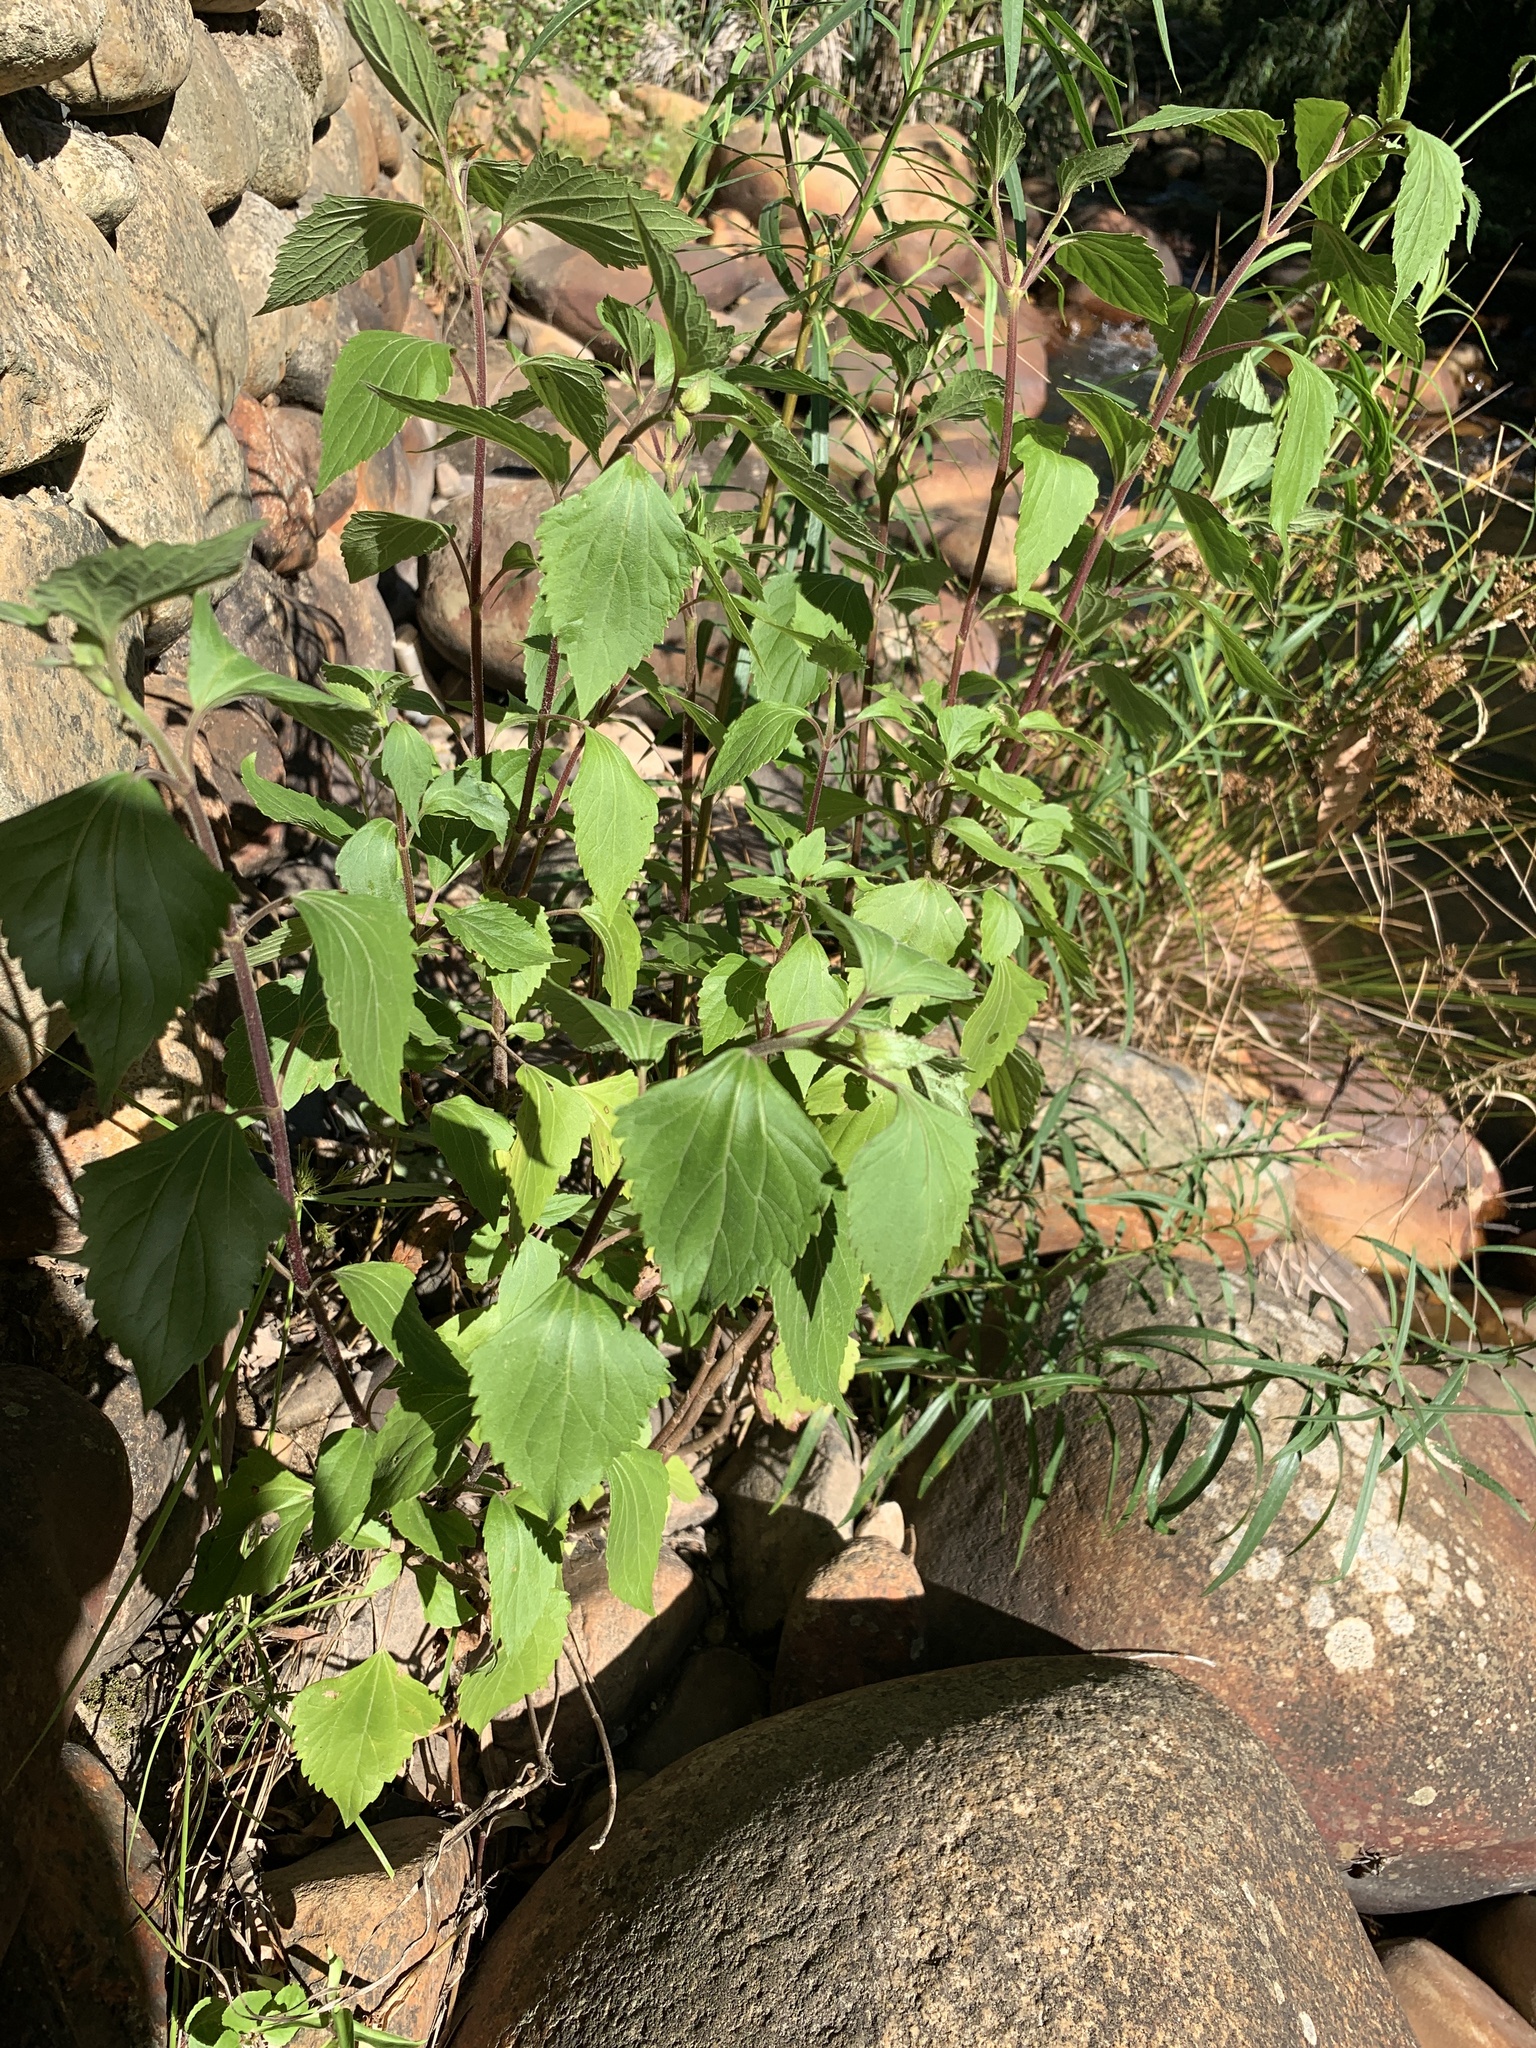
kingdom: Plantae
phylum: Tracheophyta
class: Magnoliopsida
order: Asterales
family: Asteraceae
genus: Ageratina
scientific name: Ageratina adenophora
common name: Sticky snakeroot
